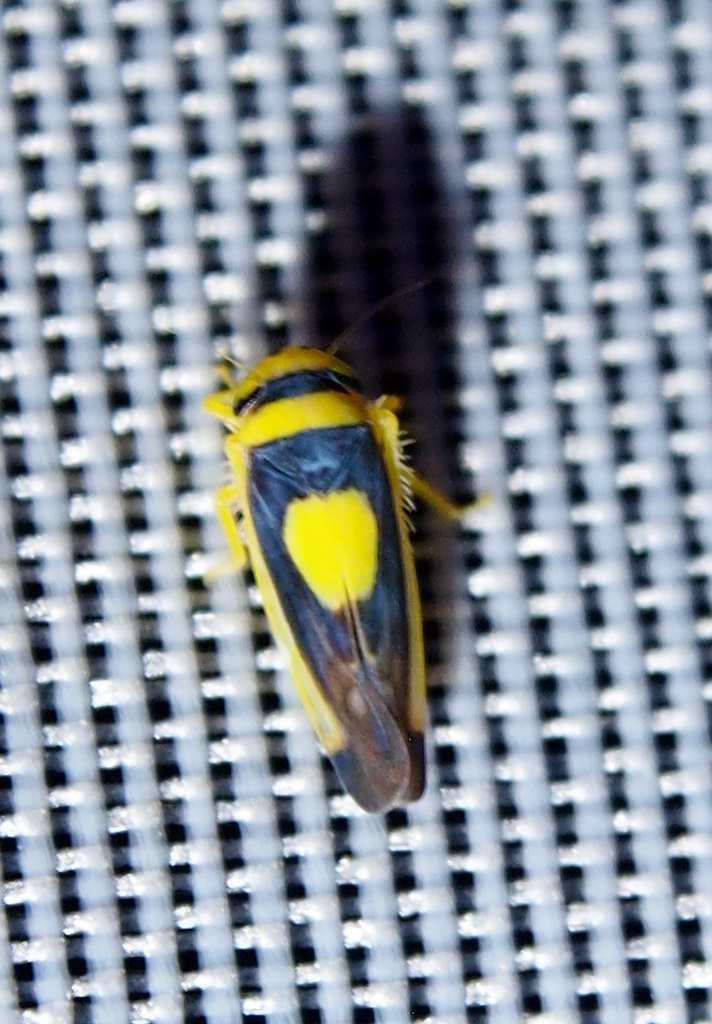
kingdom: Animalia
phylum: Arthropoda
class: Insecta
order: Hemiptera
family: Cicadellidae
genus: Colladonus
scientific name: Colladonus clitellarius
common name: The saddleback leafhopper
